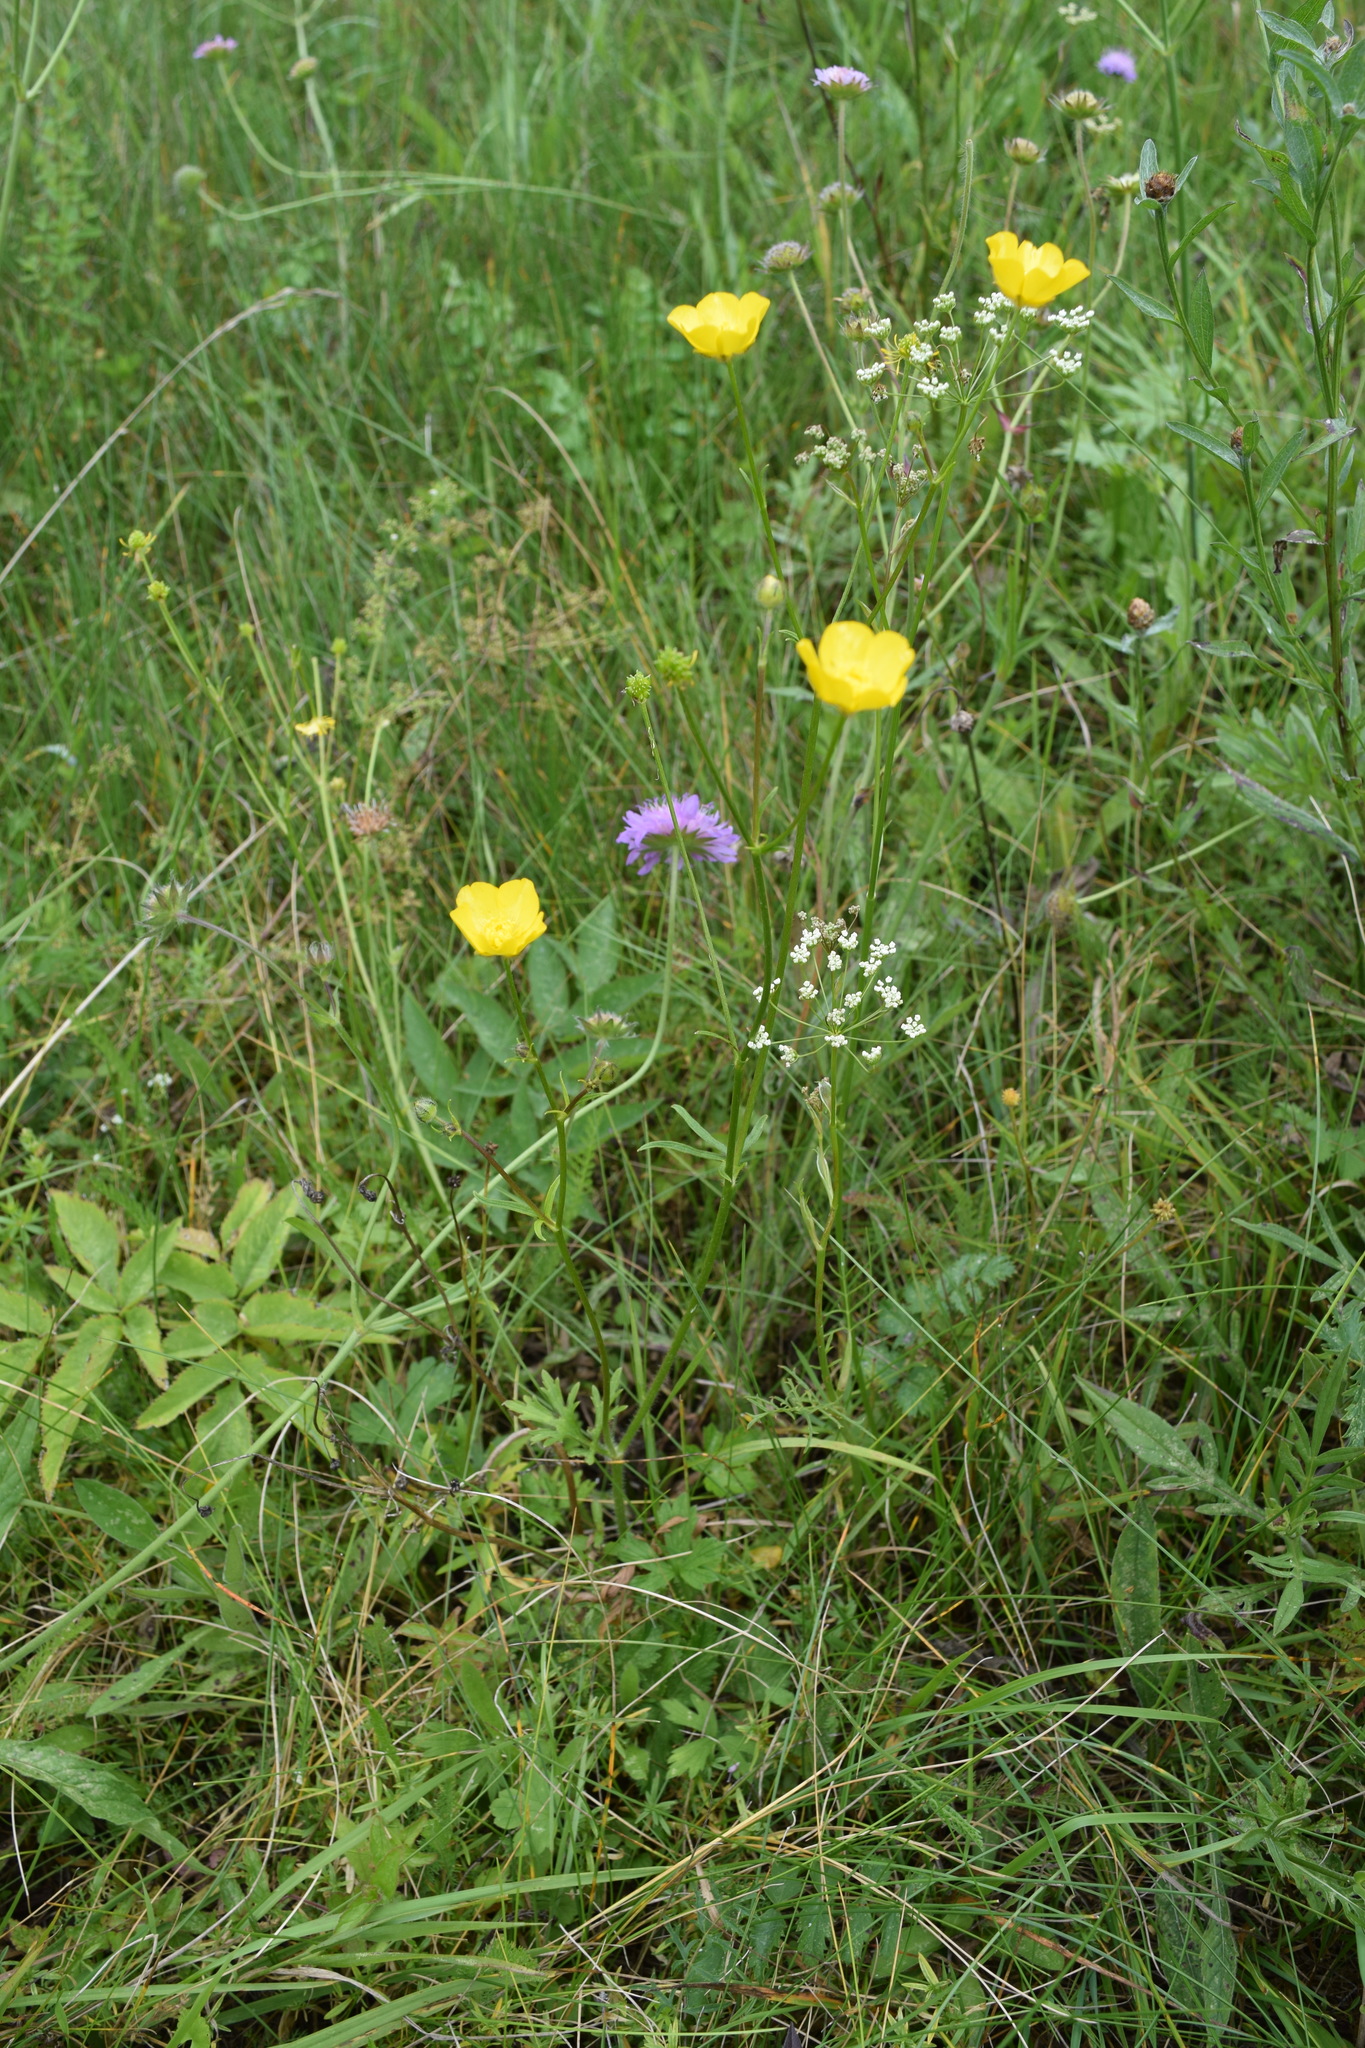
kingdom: Plantae
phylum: Tracheophyta
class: Magnoliopsida
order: Ranunculales
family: Ranunculaceae
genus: Ranunculus
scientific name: Ranunculus polyanthemos
